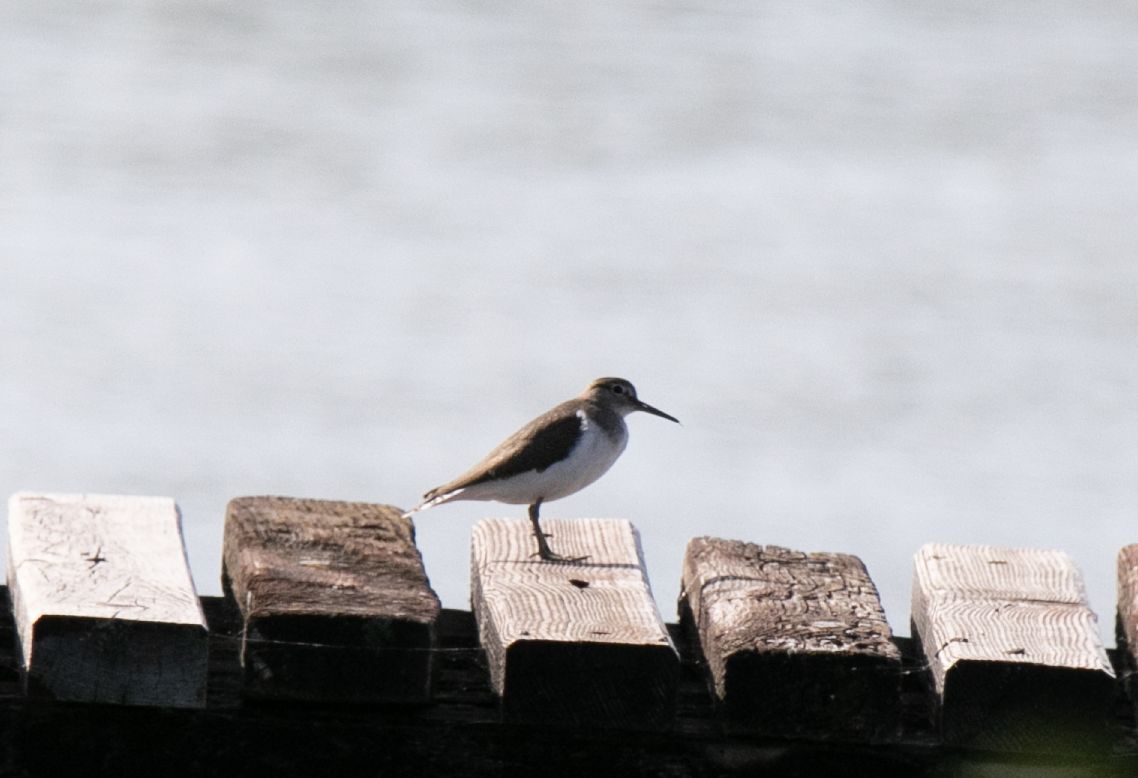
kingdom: Animalia
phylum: Chordata
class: Aves
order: Charadriiformes
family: Scolopacidae
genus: Actitis
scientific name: Actitis hypoleucos
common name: Common sandpiper
